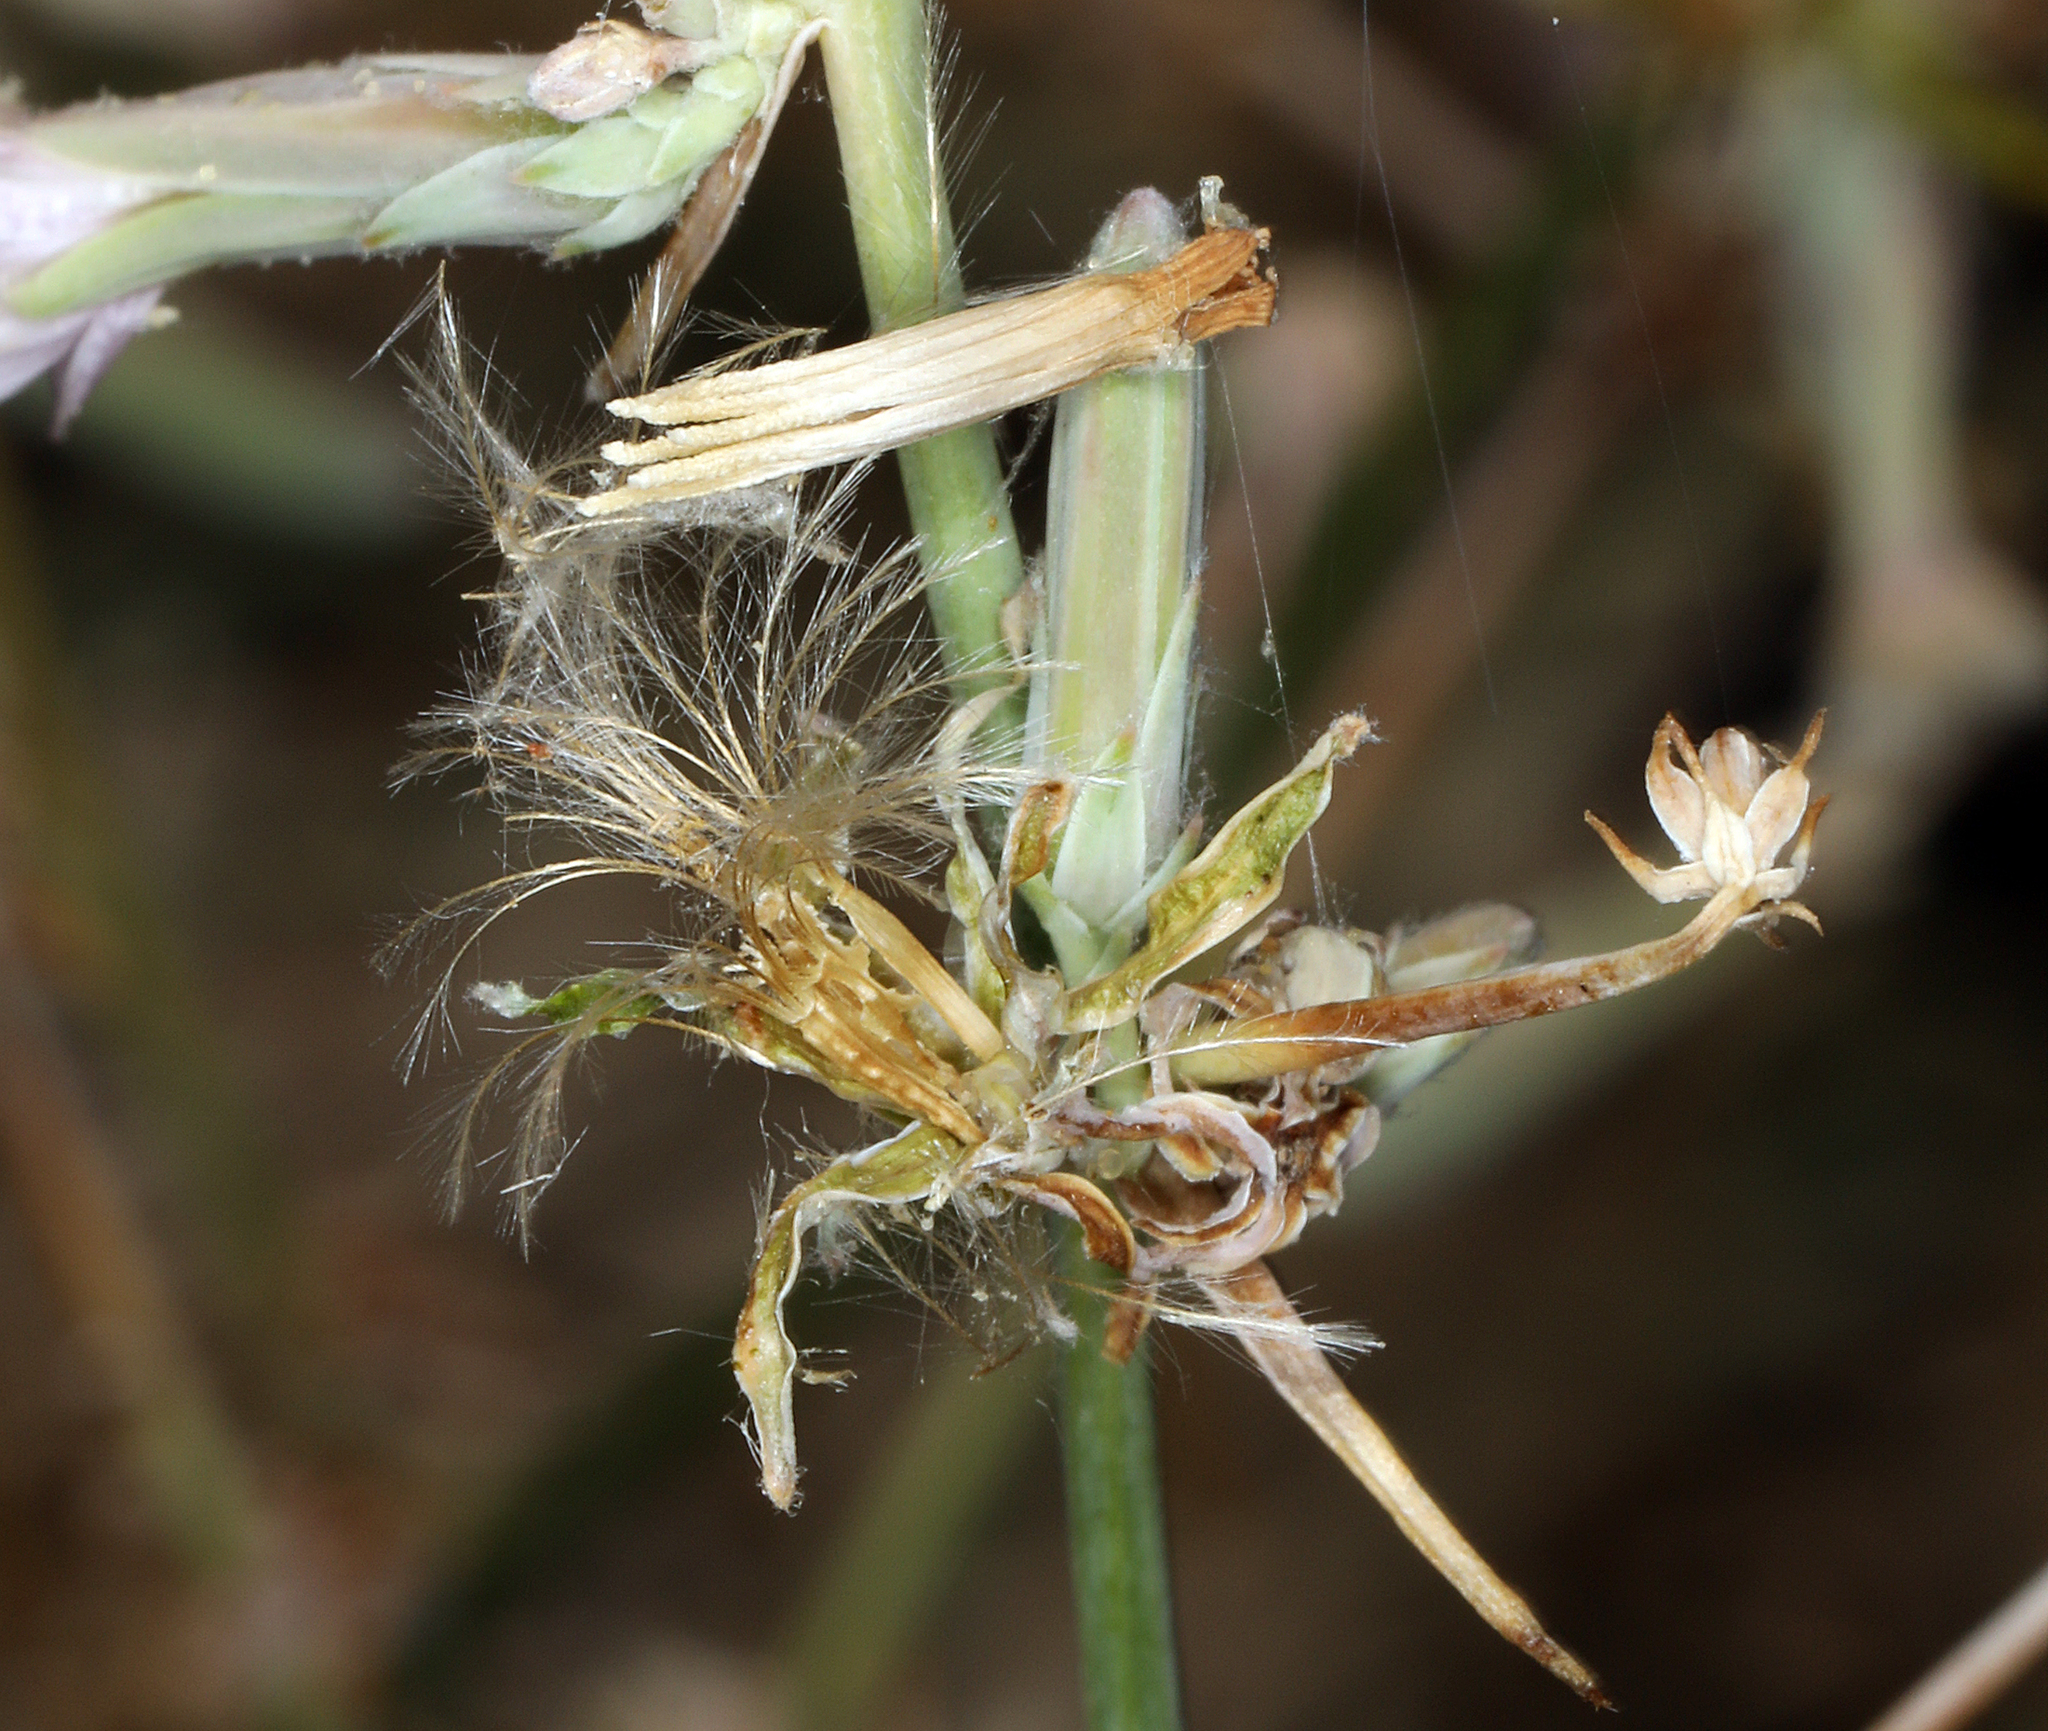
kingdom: Plantae
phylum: Tracheophyta
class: Magnoliopsida
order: Asterales
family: Asteraceae
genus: Stephanomeria
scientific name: Stephanomeria pauciflora
